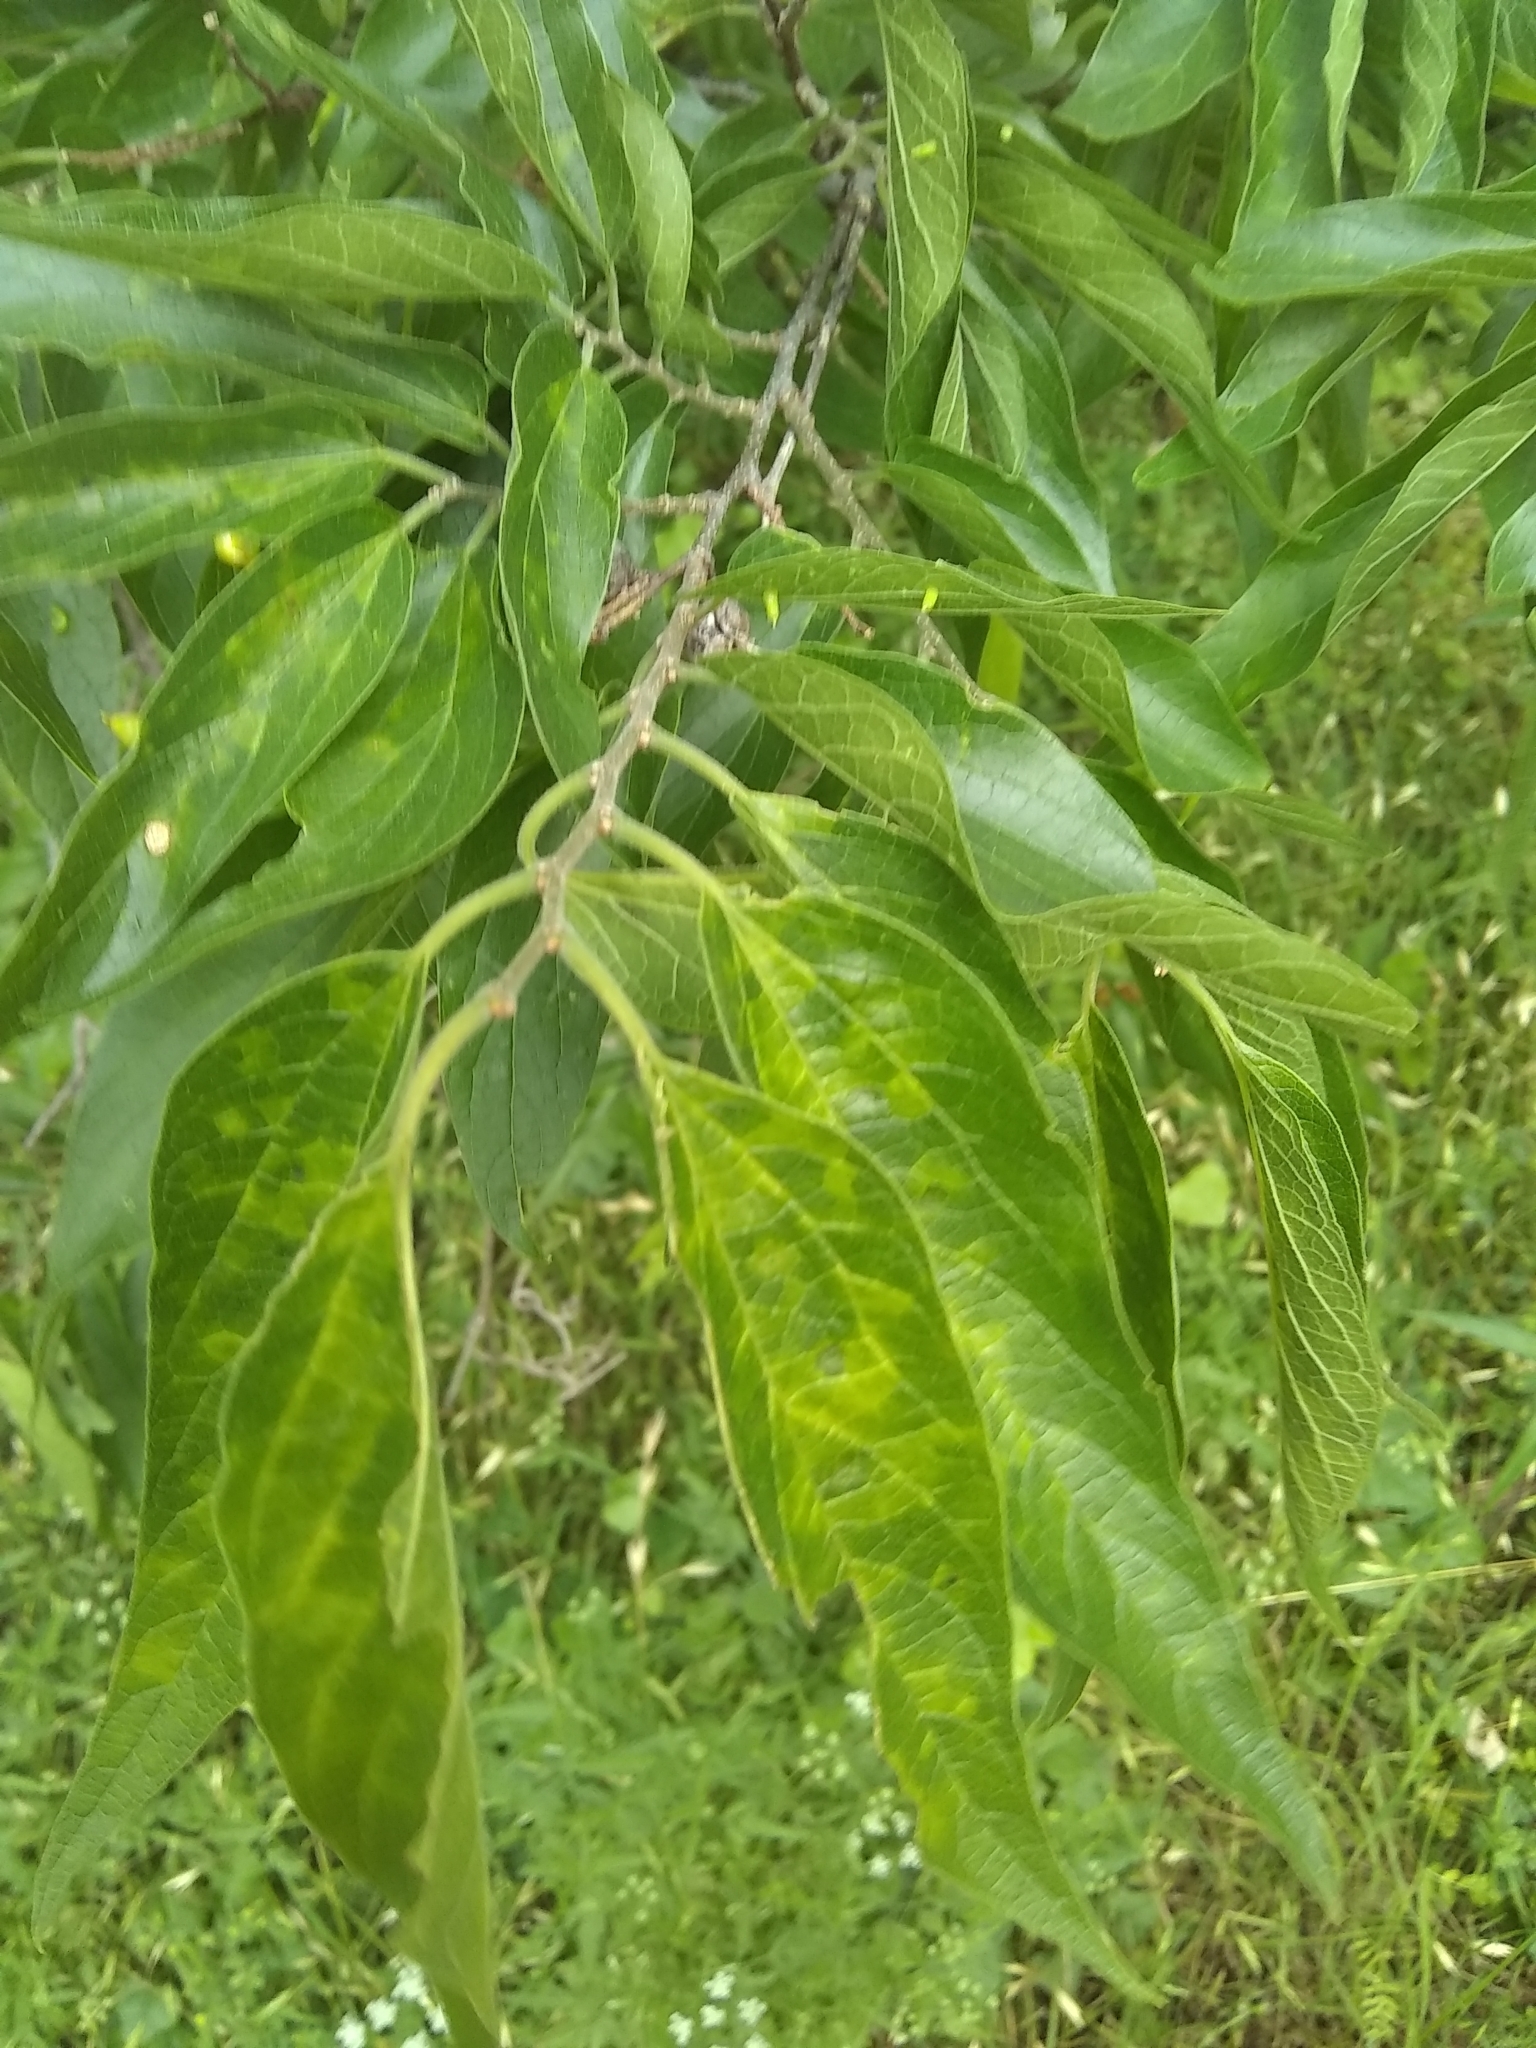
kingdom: Animalia
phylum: Arthropoda
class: Insecta
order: Hemiptera
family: Aphalaridae
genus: Pachypsylla
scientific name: Pachypsylla venusta
